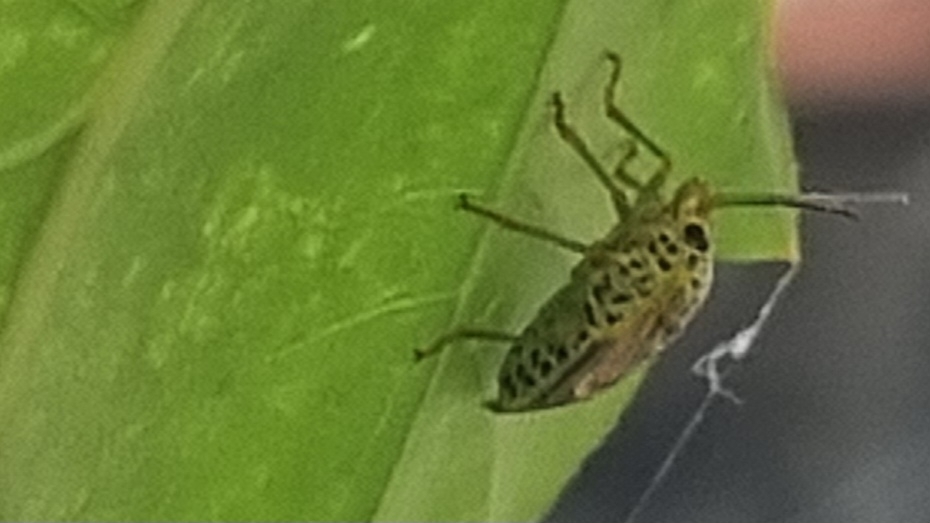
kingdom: Animalia
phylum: Arthropoda
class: Insecta
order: Hemiptera
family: Pentatomidae
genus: Antestiopsis
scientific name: Antestiopsis cruciata
